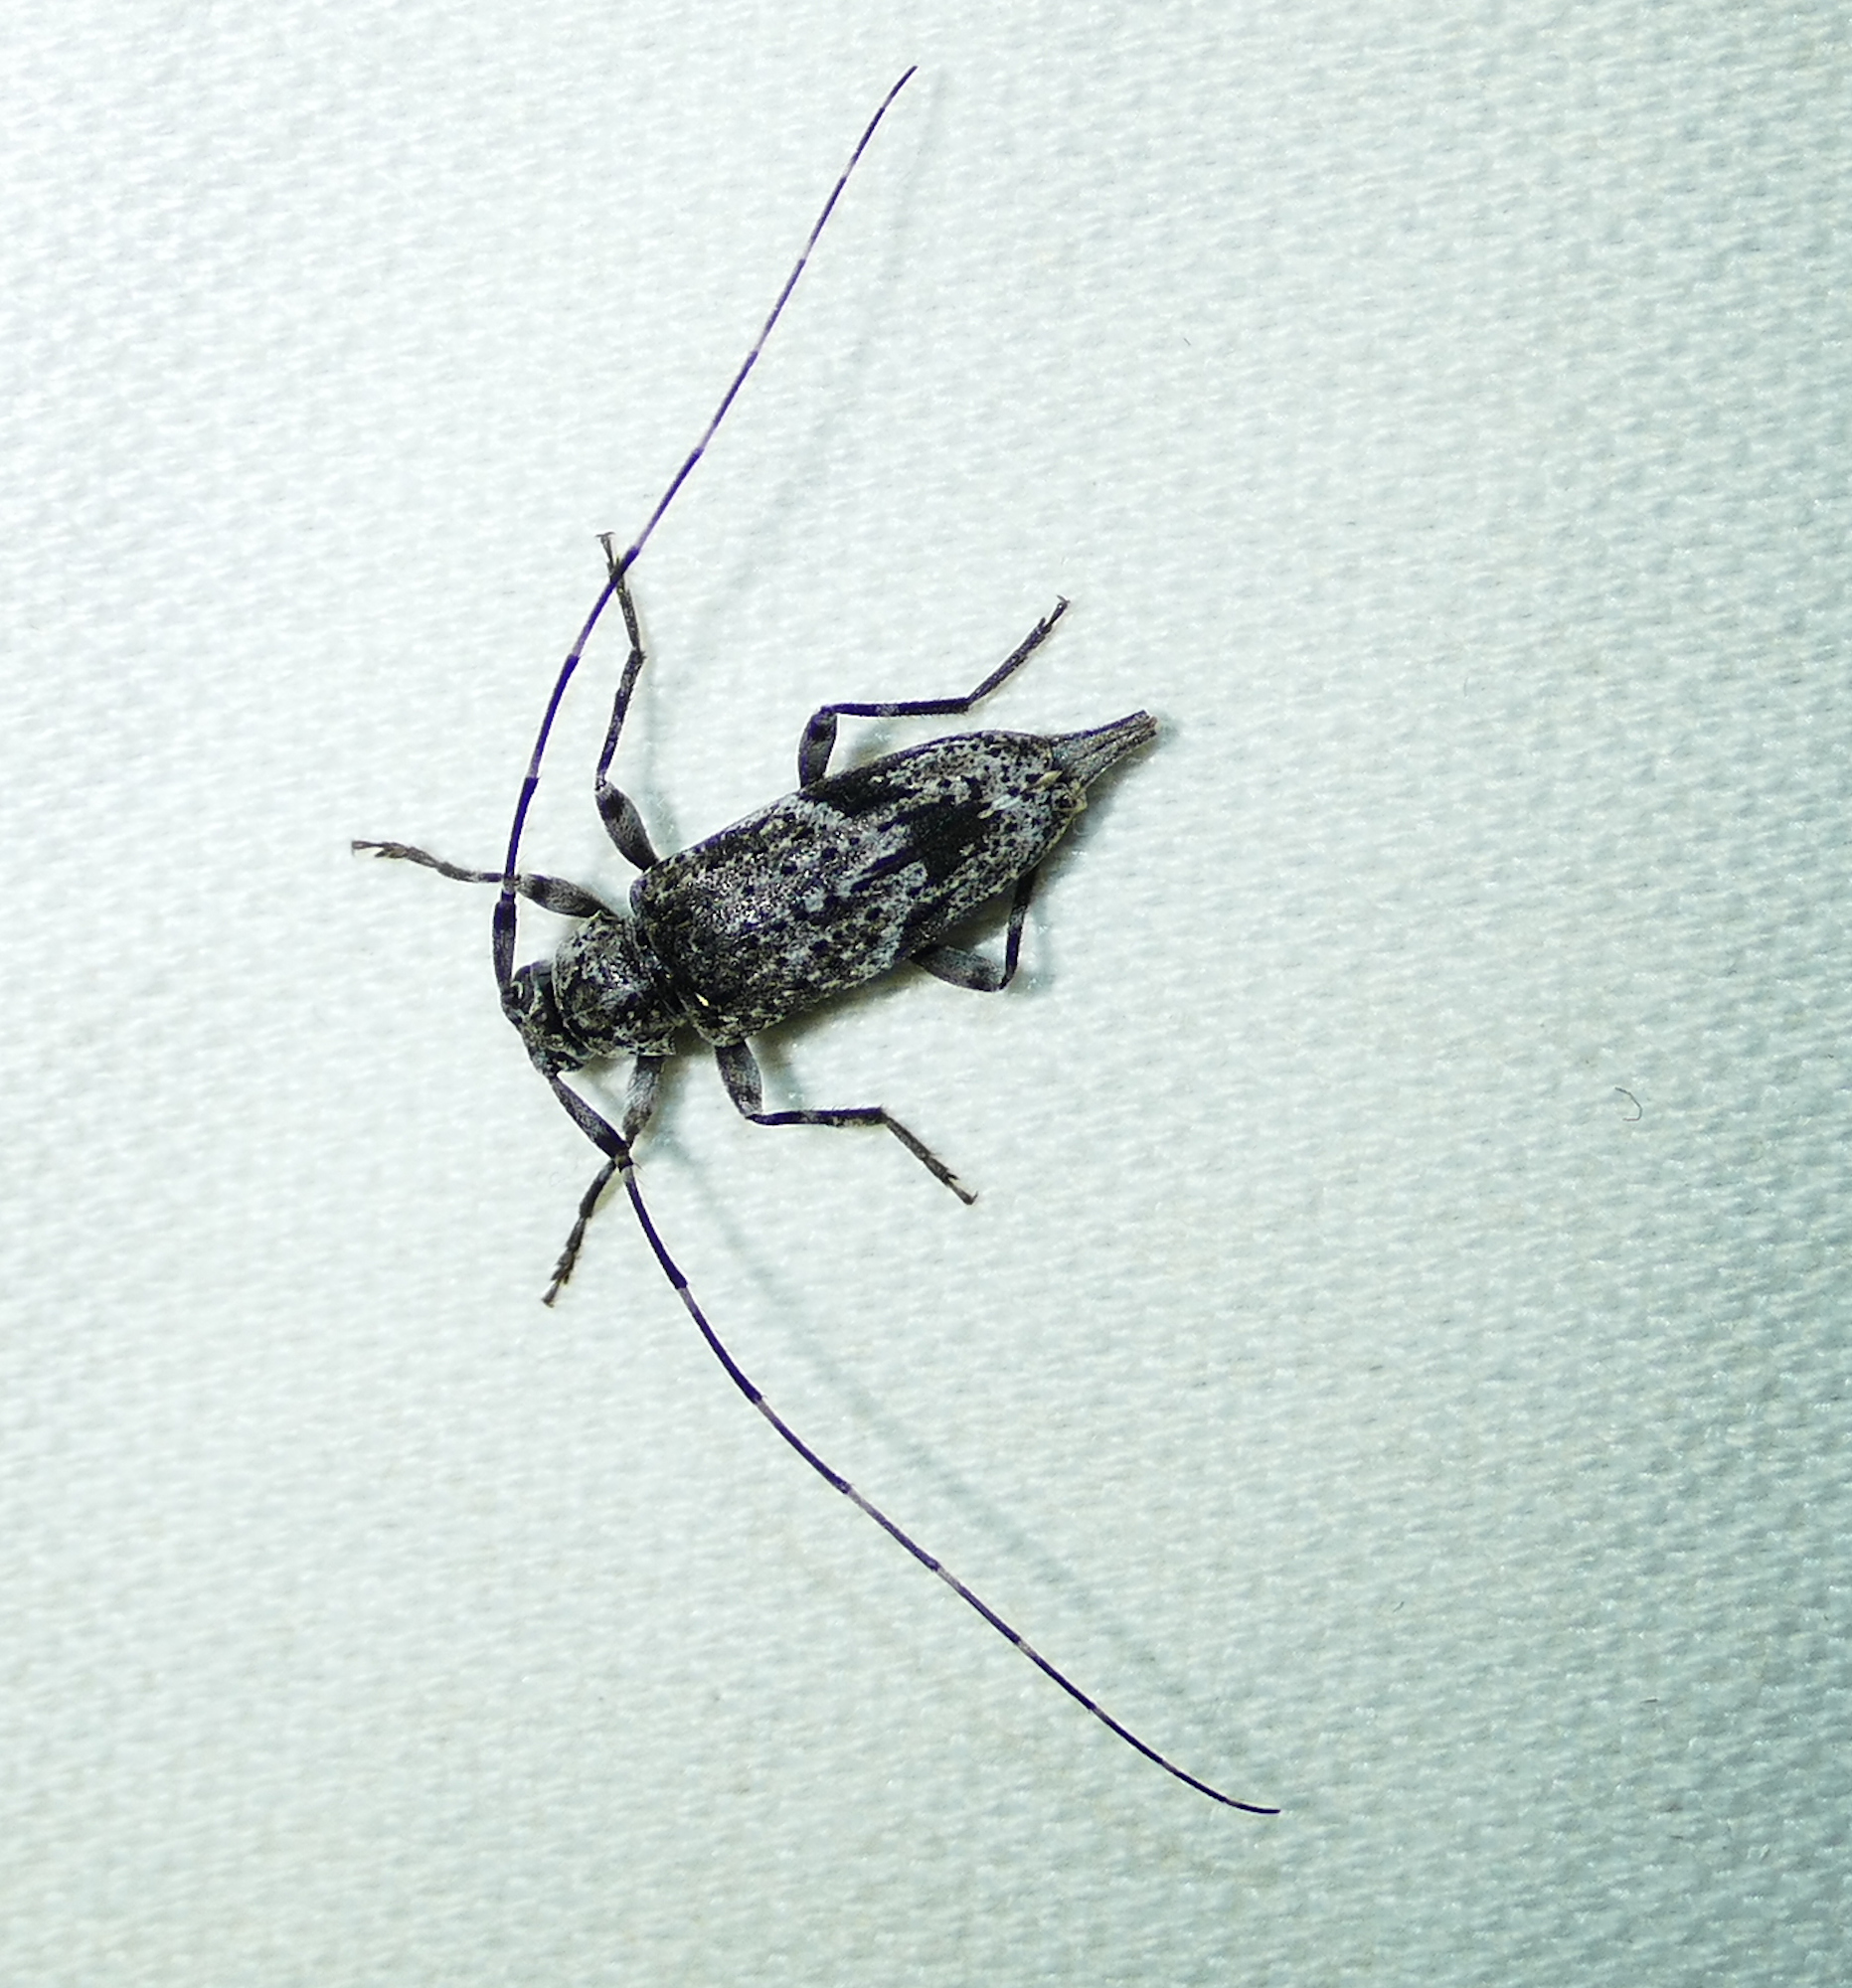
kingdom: Animalia
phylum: Arthropoda
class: Insecta
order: Coleoptera
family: Cerambycidae
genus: Eutrichillus
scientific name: Eutrichillus neomexicanus
